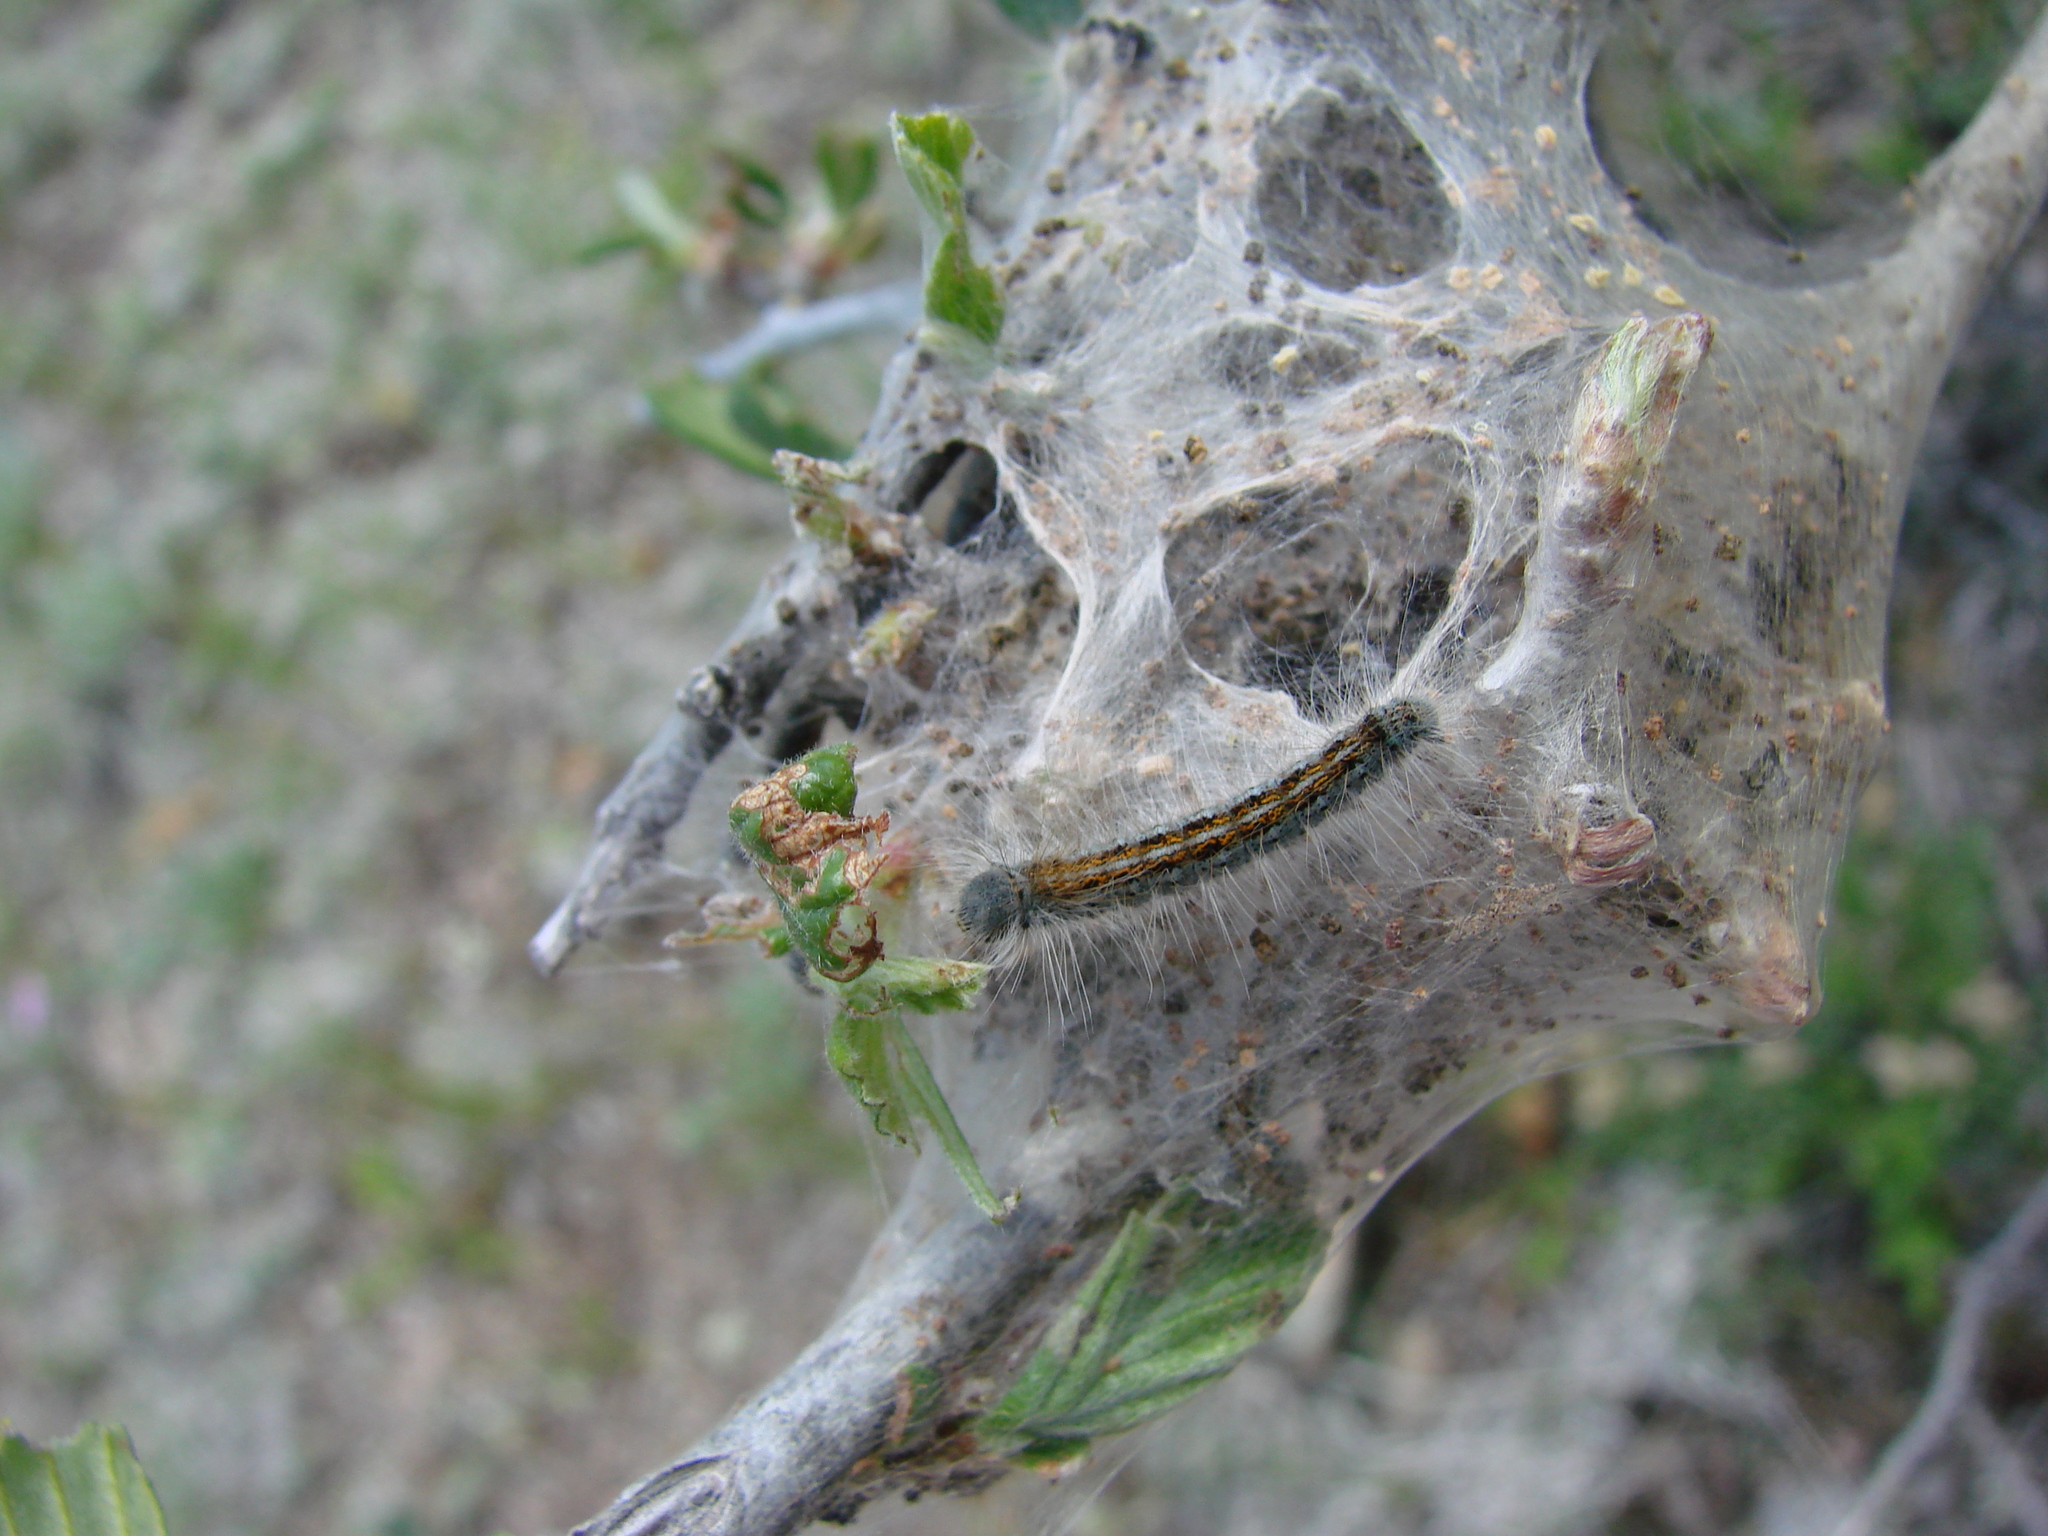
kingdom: Animalia
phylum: Arthropoda
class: Insecta
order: Lepidoptera
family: Lasiocampidae
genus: Malacosoma
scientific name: Malacosoma californica
